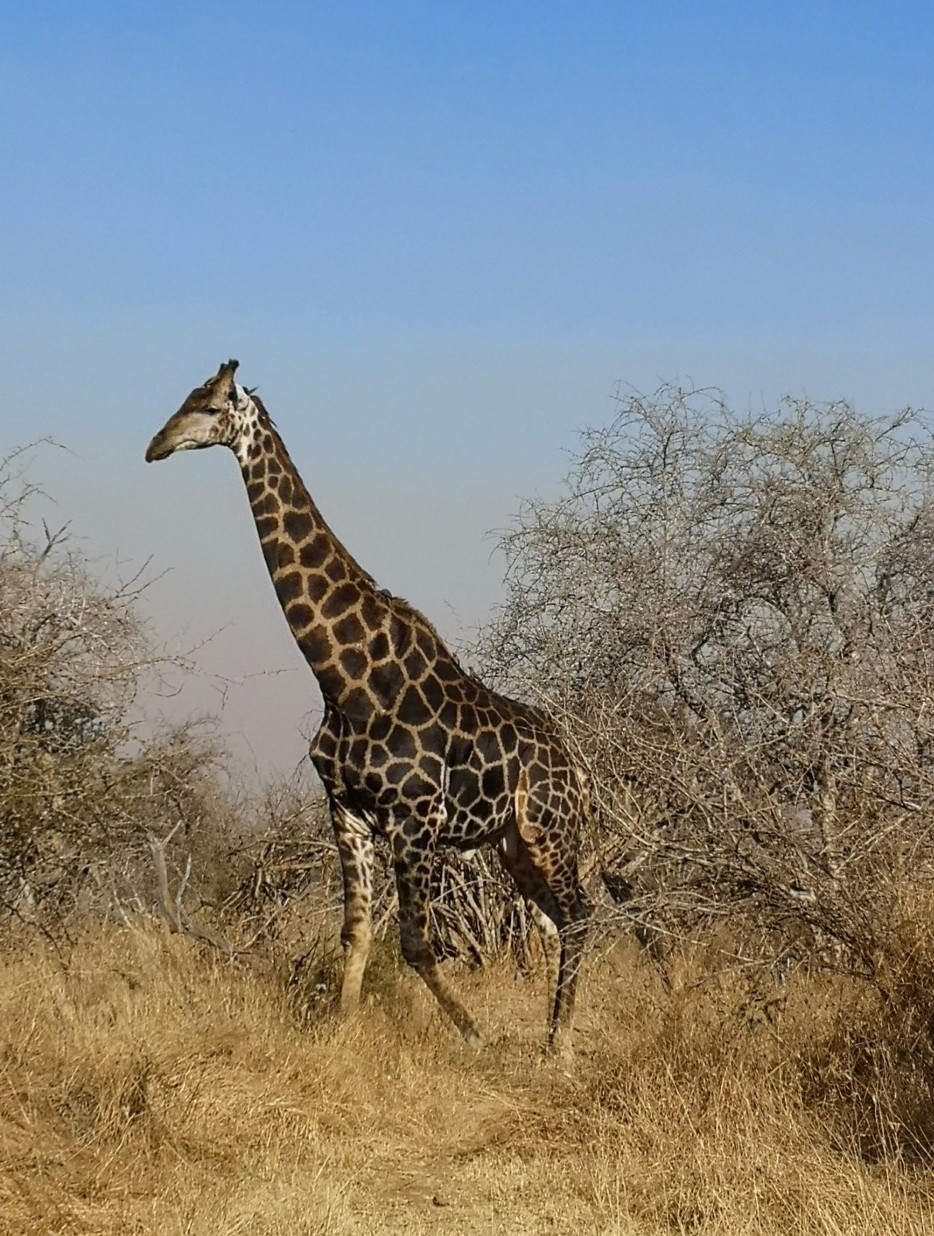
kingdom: Animalia
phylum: Chordata
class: Mammalia
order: Artiodactyla
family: Giraffidae
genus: Giraffa
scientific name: Giraffa giraffa
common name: Southern giraffe
